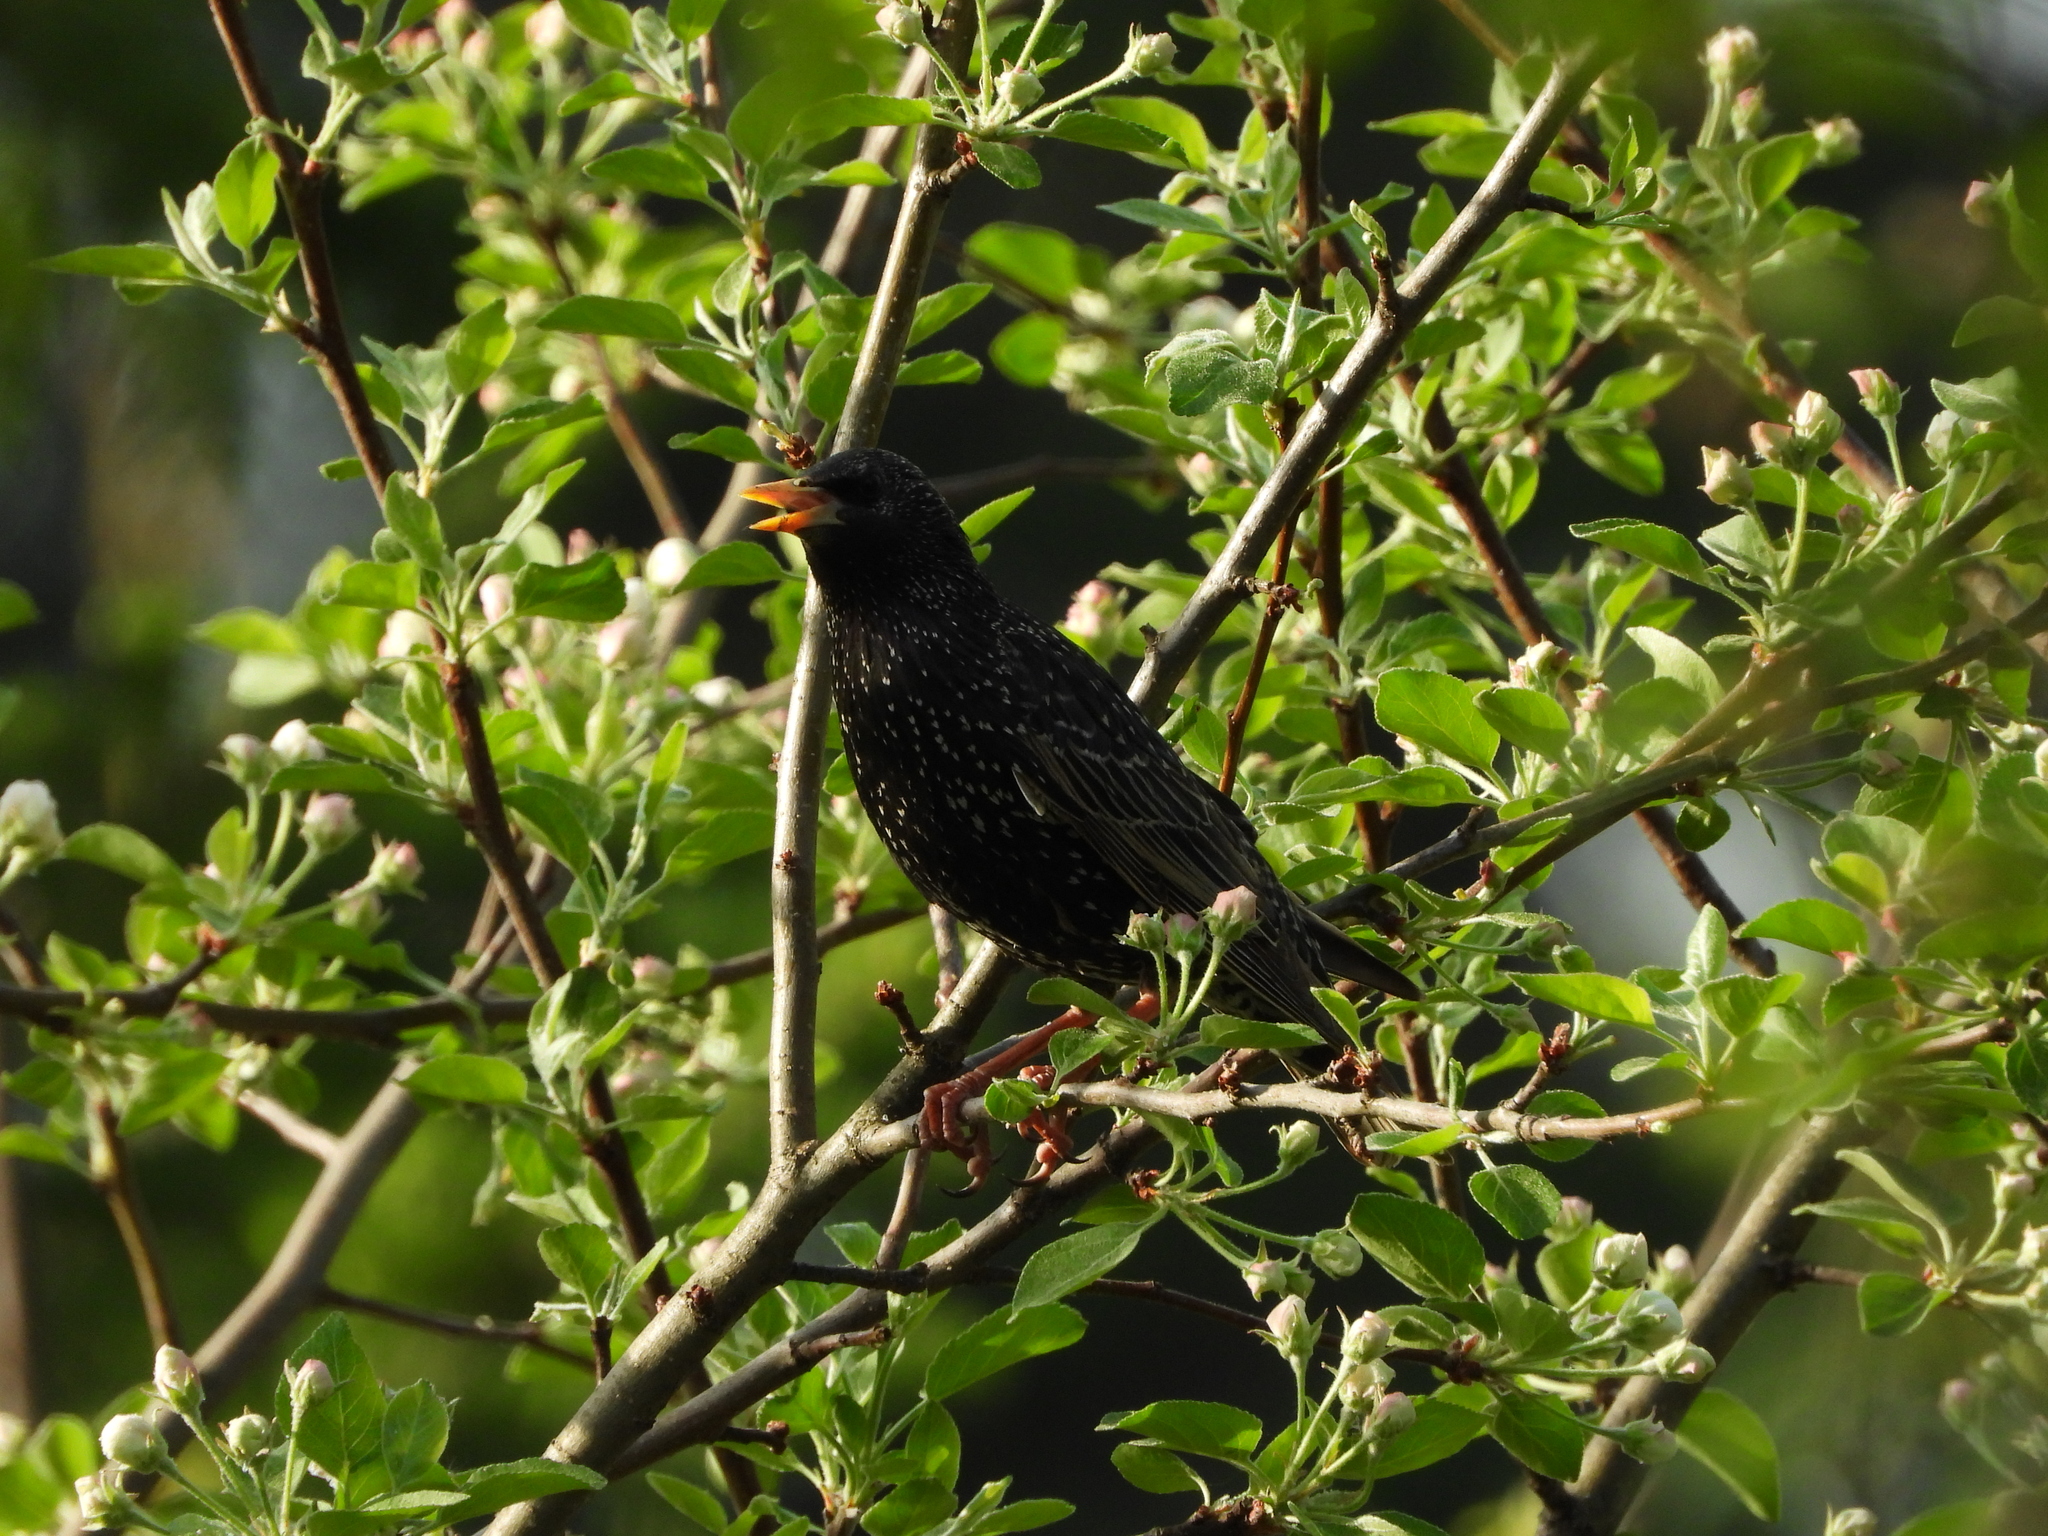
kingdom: Animalia
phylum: Chordata
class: Aves
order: Passeriformes
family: Sturnidae
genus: Sturnus
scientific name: Sturnus vulgaris
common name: Common starling
